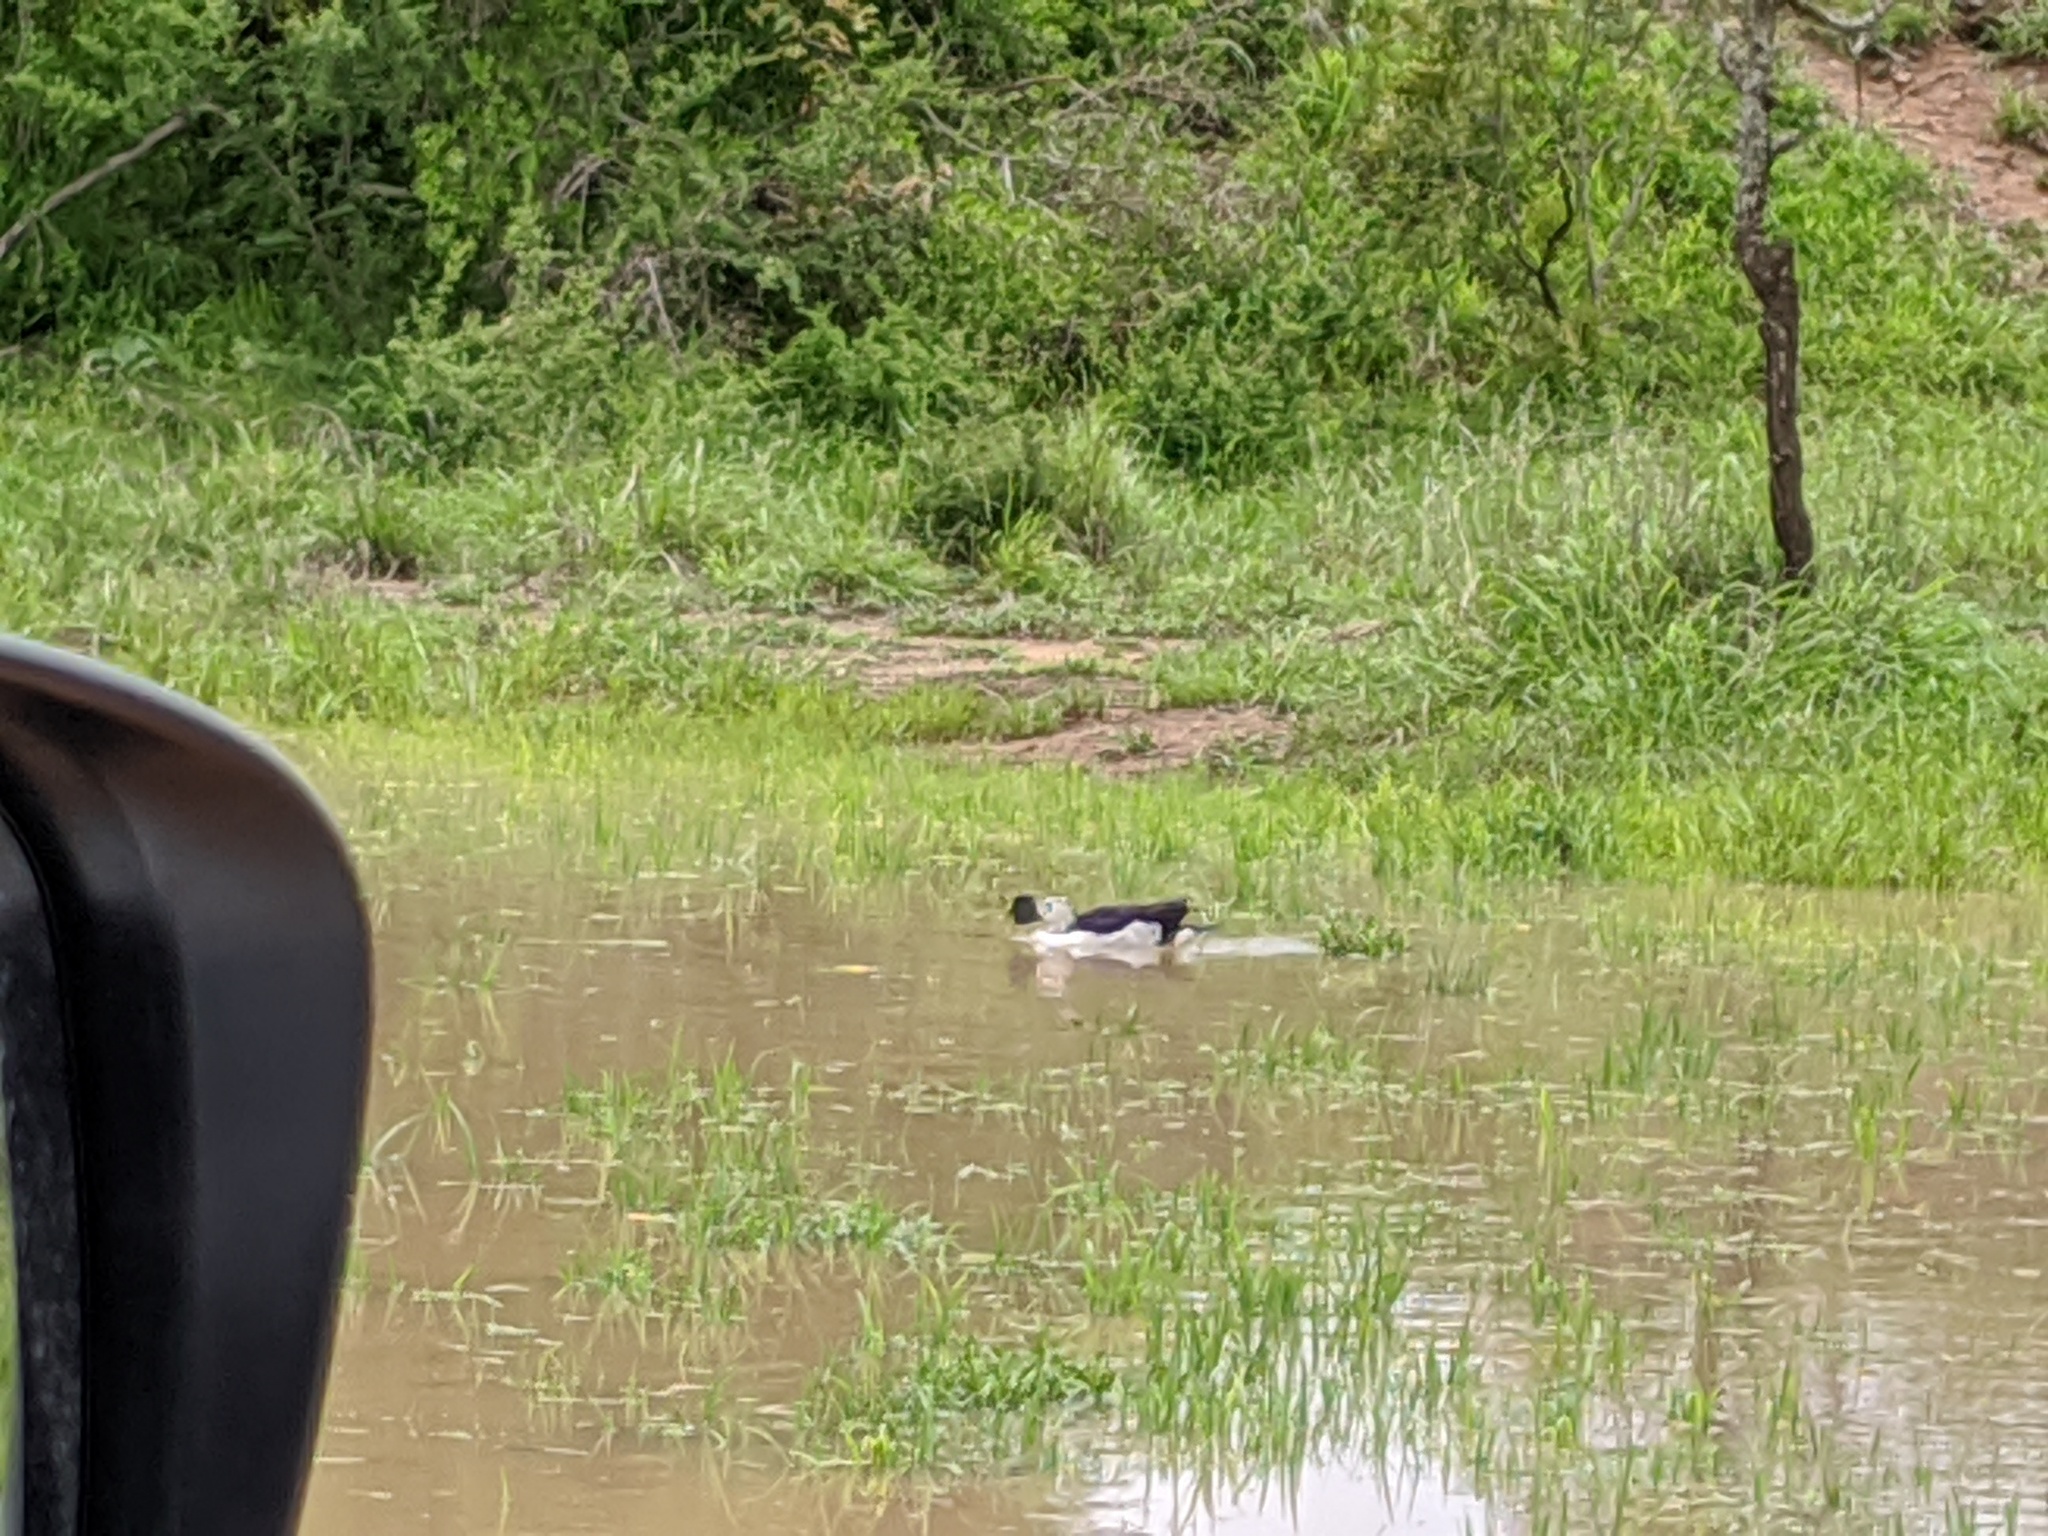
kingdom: Animalia
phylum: Chordata
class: Aves
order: Anseriformes
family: Anatidae
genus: Sarkidiornis
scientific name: Sarkidiornis melanotos
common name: Comb duck
